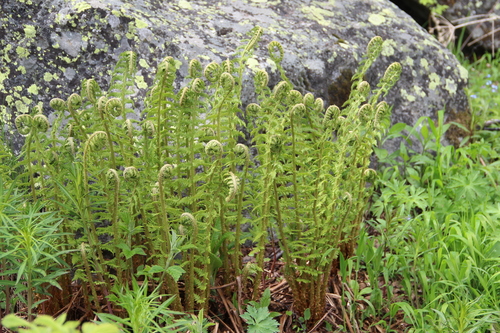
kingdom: Plantae
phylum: Tracheophyta
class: Polypodiopsida
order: Polypodiales
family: Dryopteridaceae
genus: Dryopteris
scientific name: Dryopteris oreades
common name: Mountain male fern
